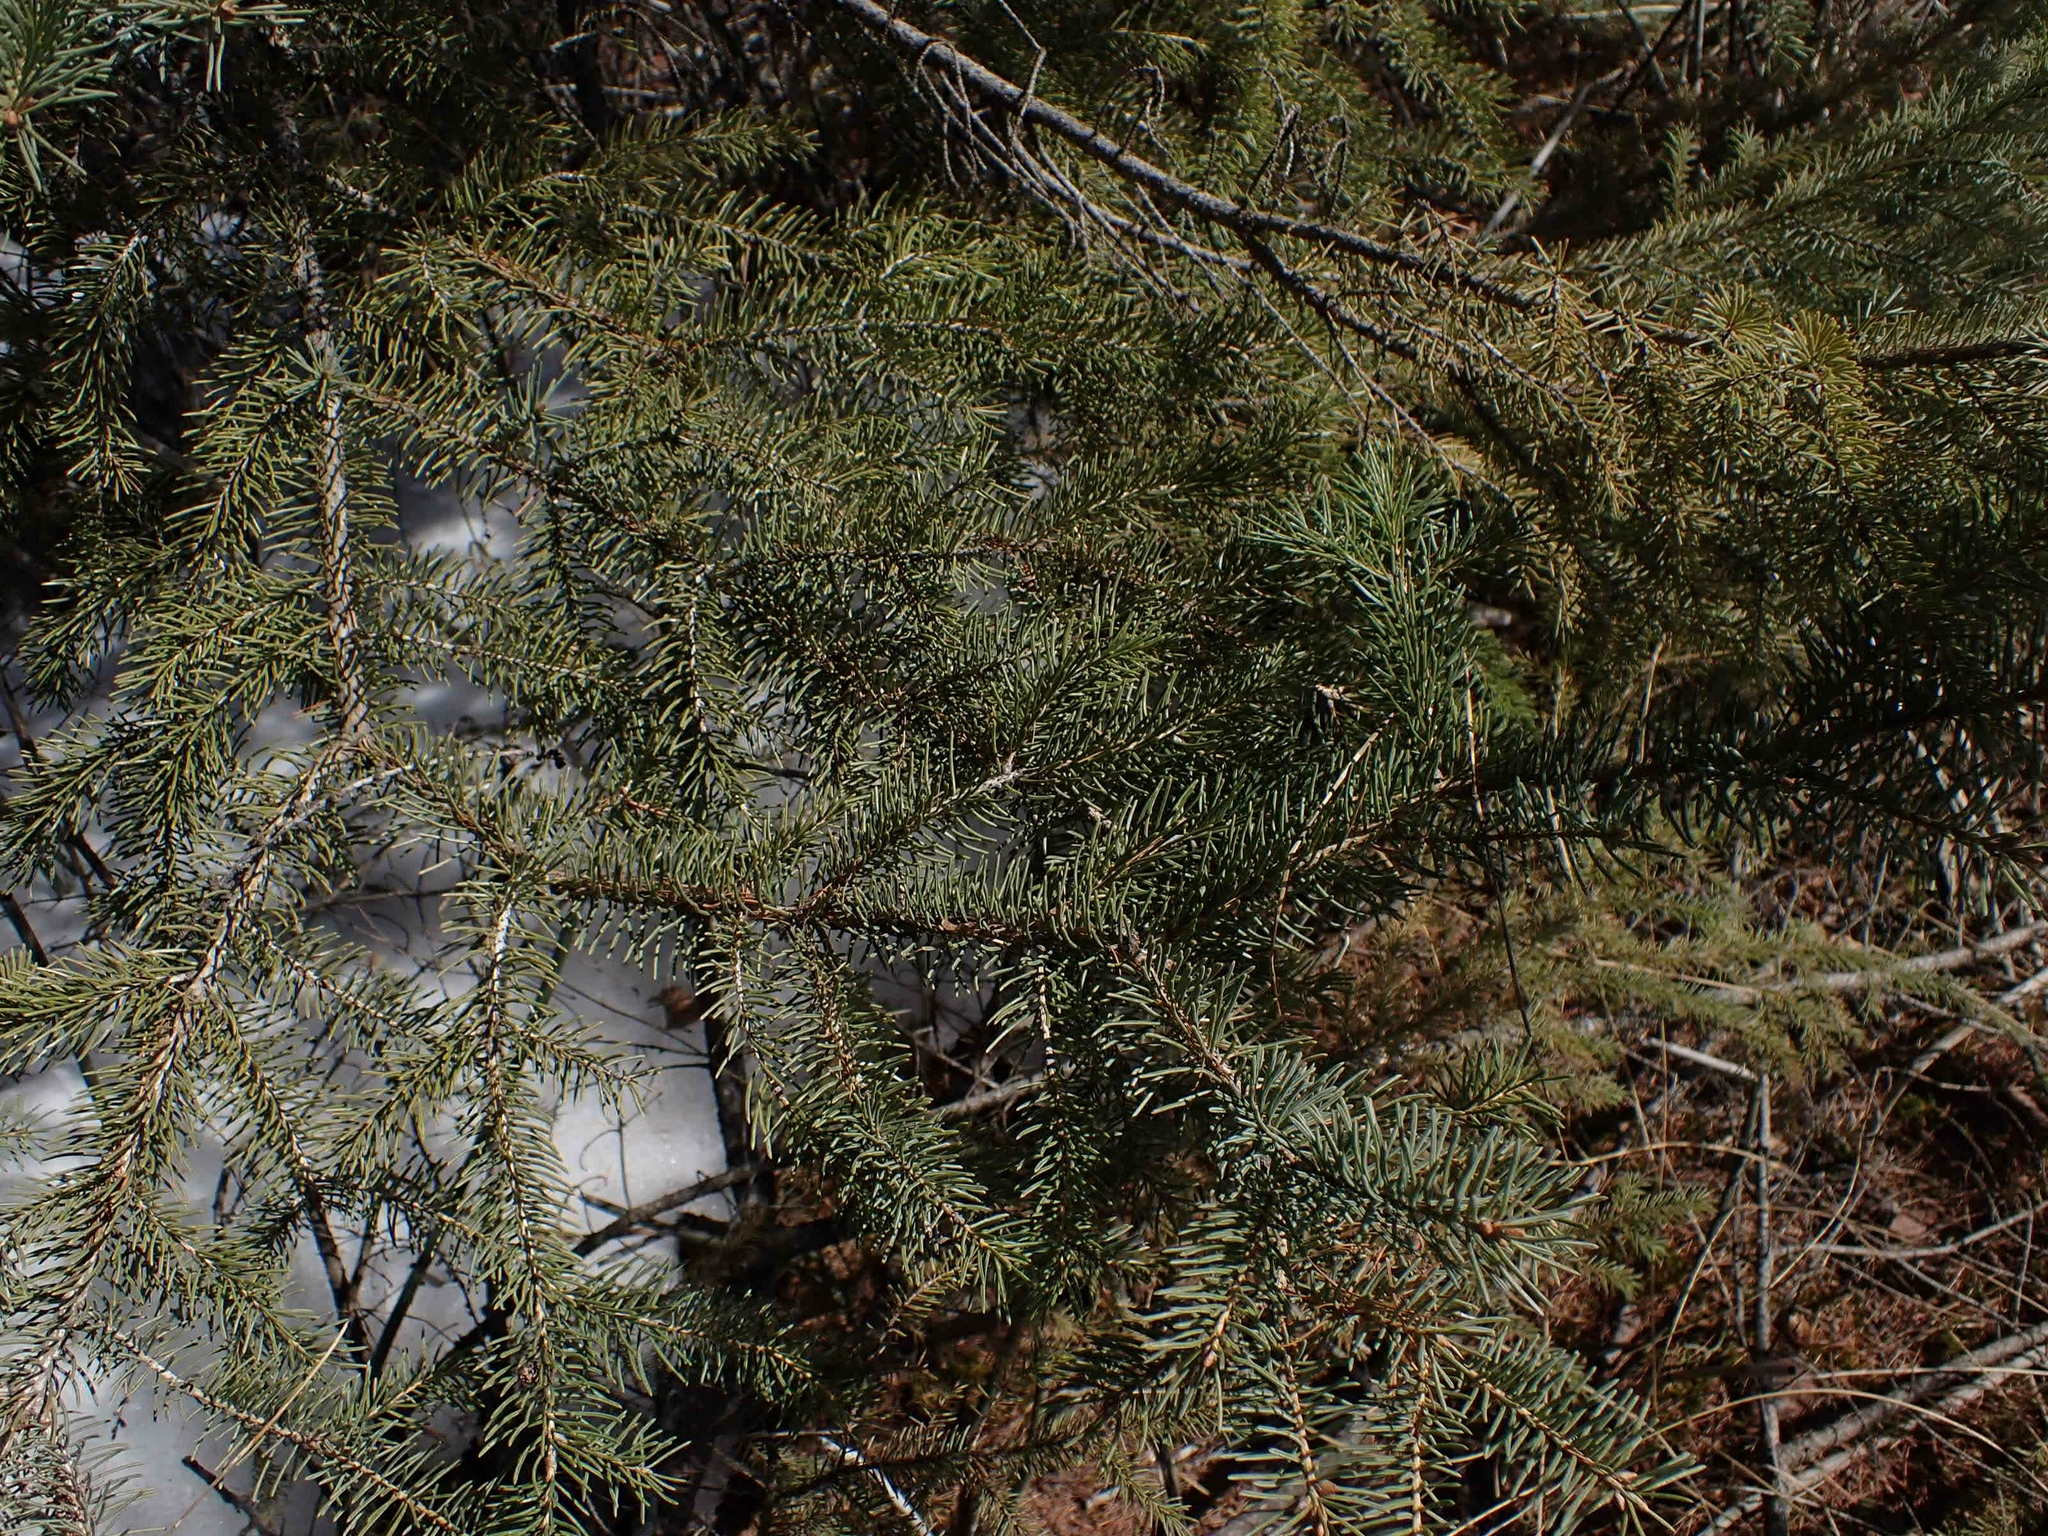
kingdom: Plantae
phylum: Tracheophyta
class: Pinopsida
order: Pinales
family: Pinaceae
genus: Picea
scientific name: Picea glauca
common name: White spruce
